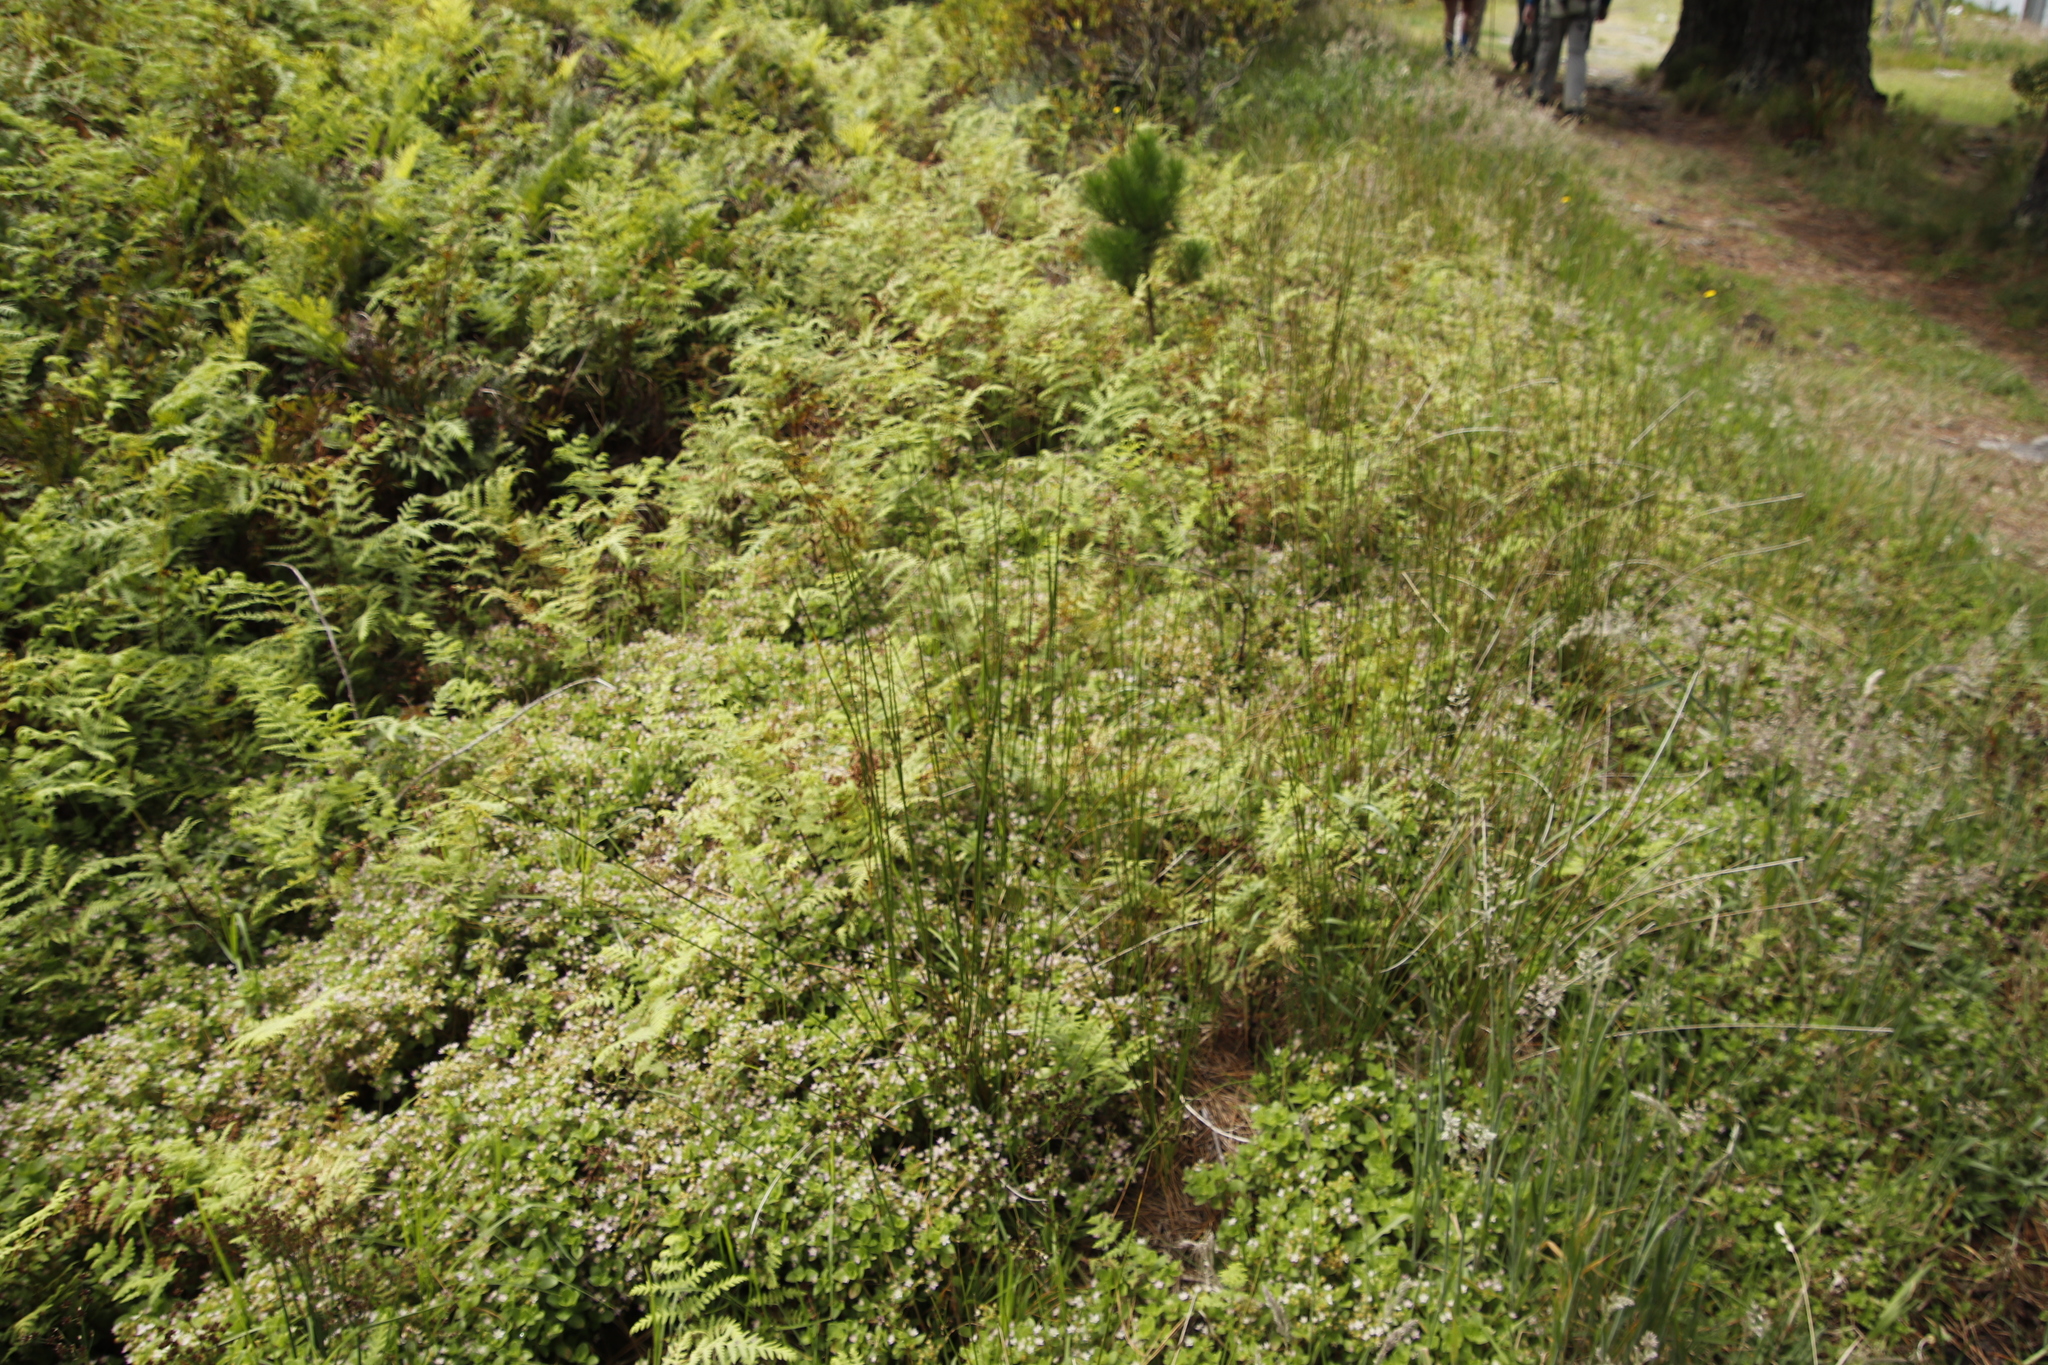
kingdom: Plantae
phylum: Tracheophyta
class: Magnoliopsida
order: Saxifragales
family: Crassulaceae
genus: Crassula
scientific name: Crassula pellucida
